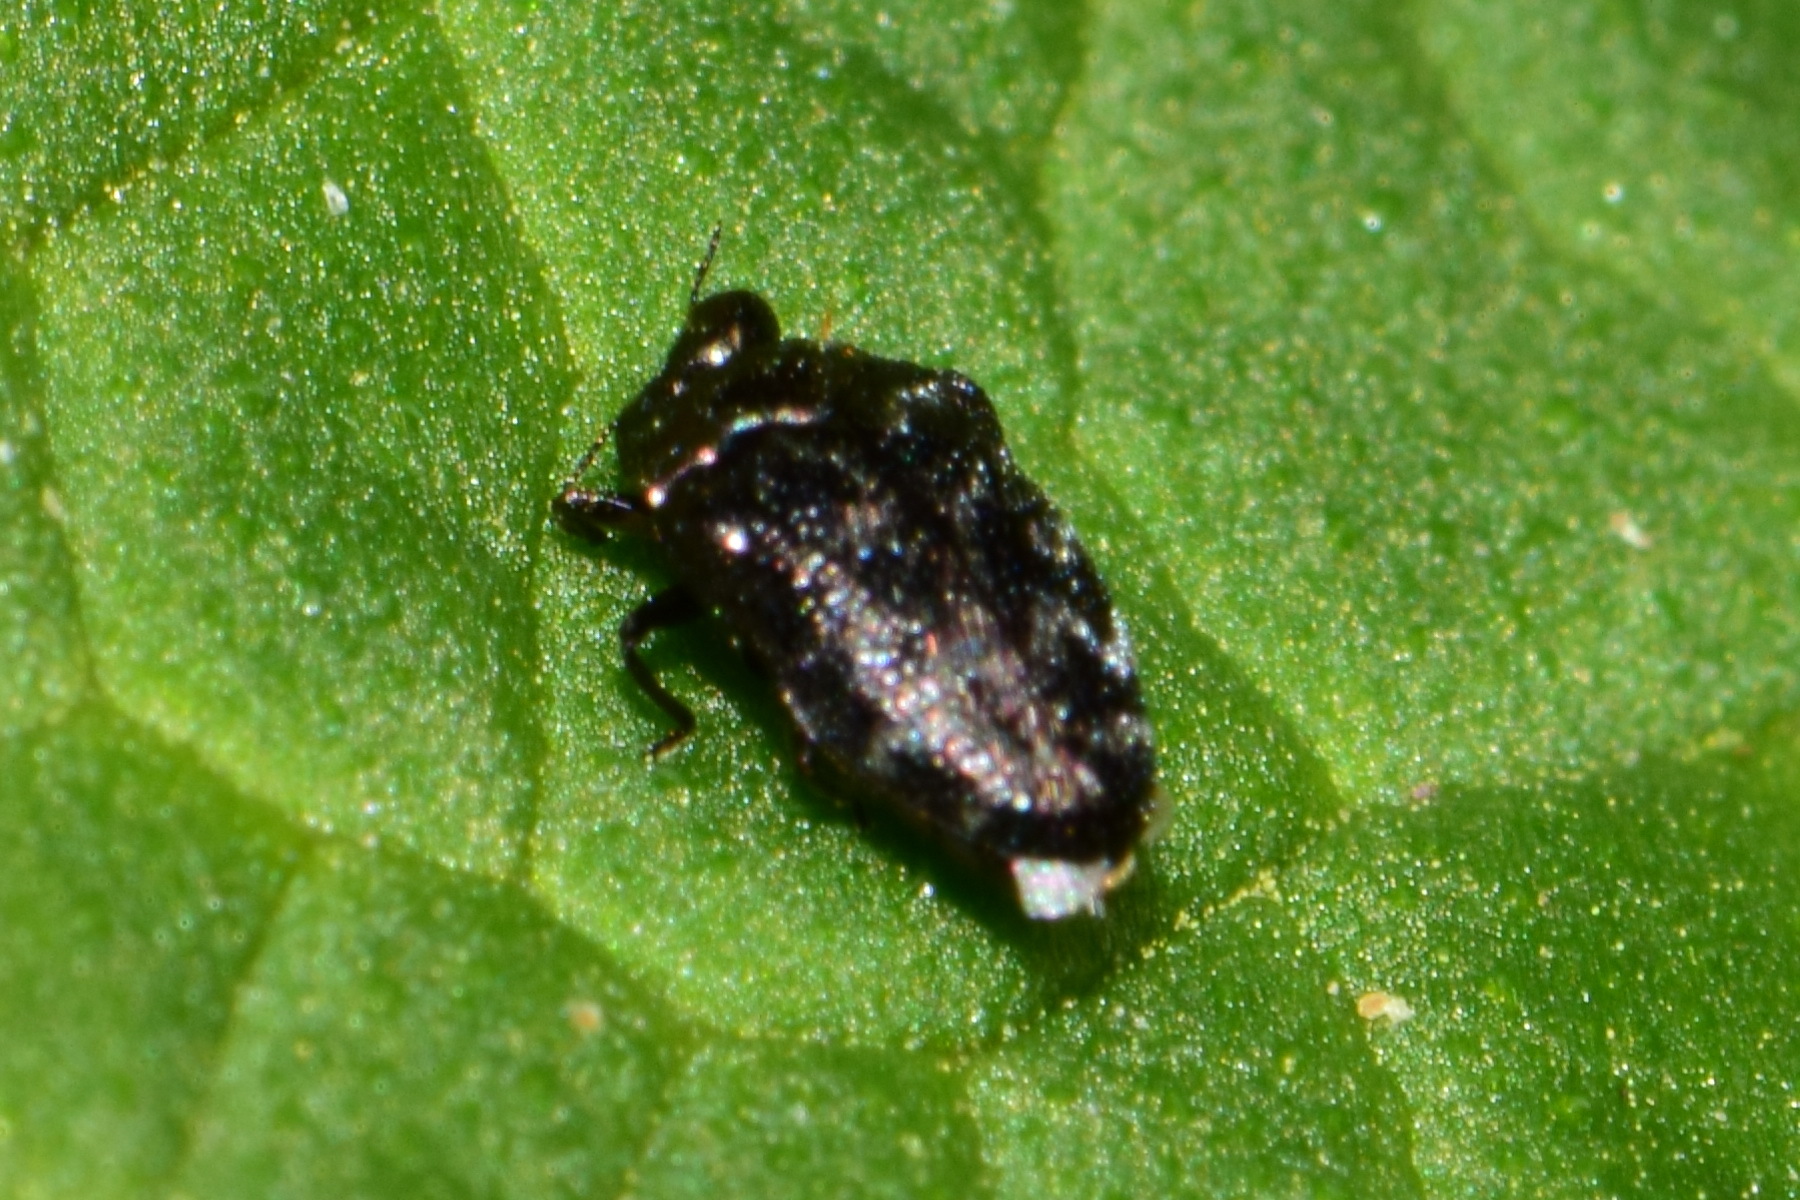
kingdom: Animalia
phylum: Arthropoda
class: Insecta
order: Coleoptera
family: Buprestidae
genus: Trachys
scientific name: Trachys minutus
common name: Metallic wood-boring beetle
